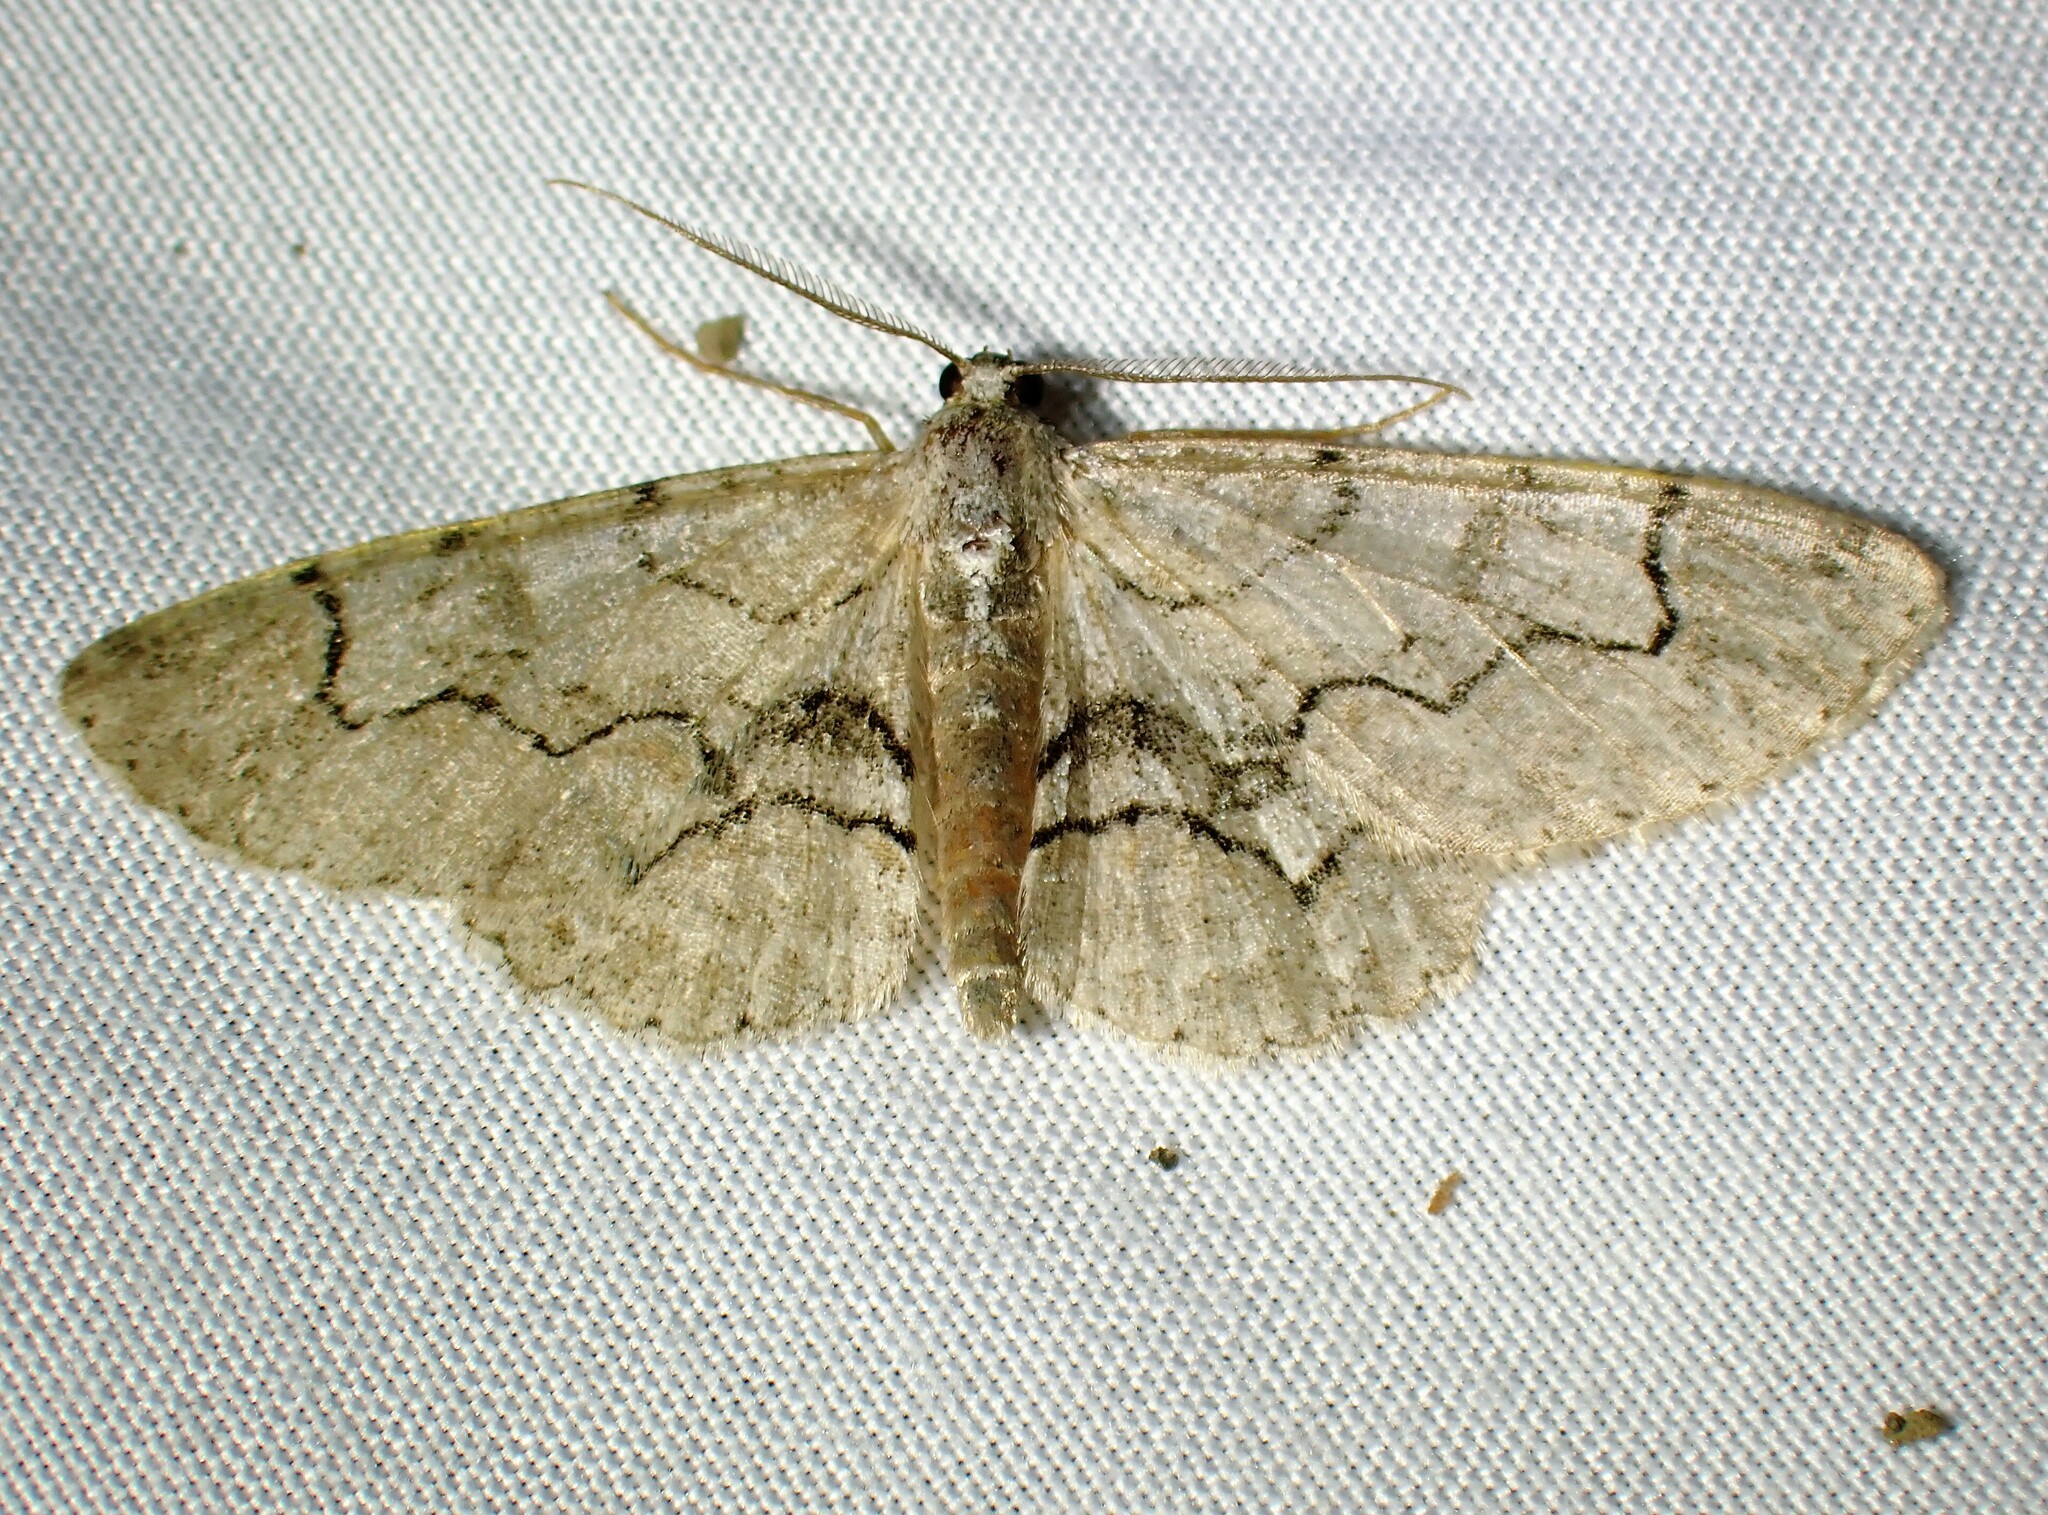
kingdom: Animalia
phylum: Arthropoda
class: Insecta
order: Lepidoptera
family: Geometridae
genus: Iridopsis
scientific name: Iridopsis larvaria
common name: Bent-line gray
